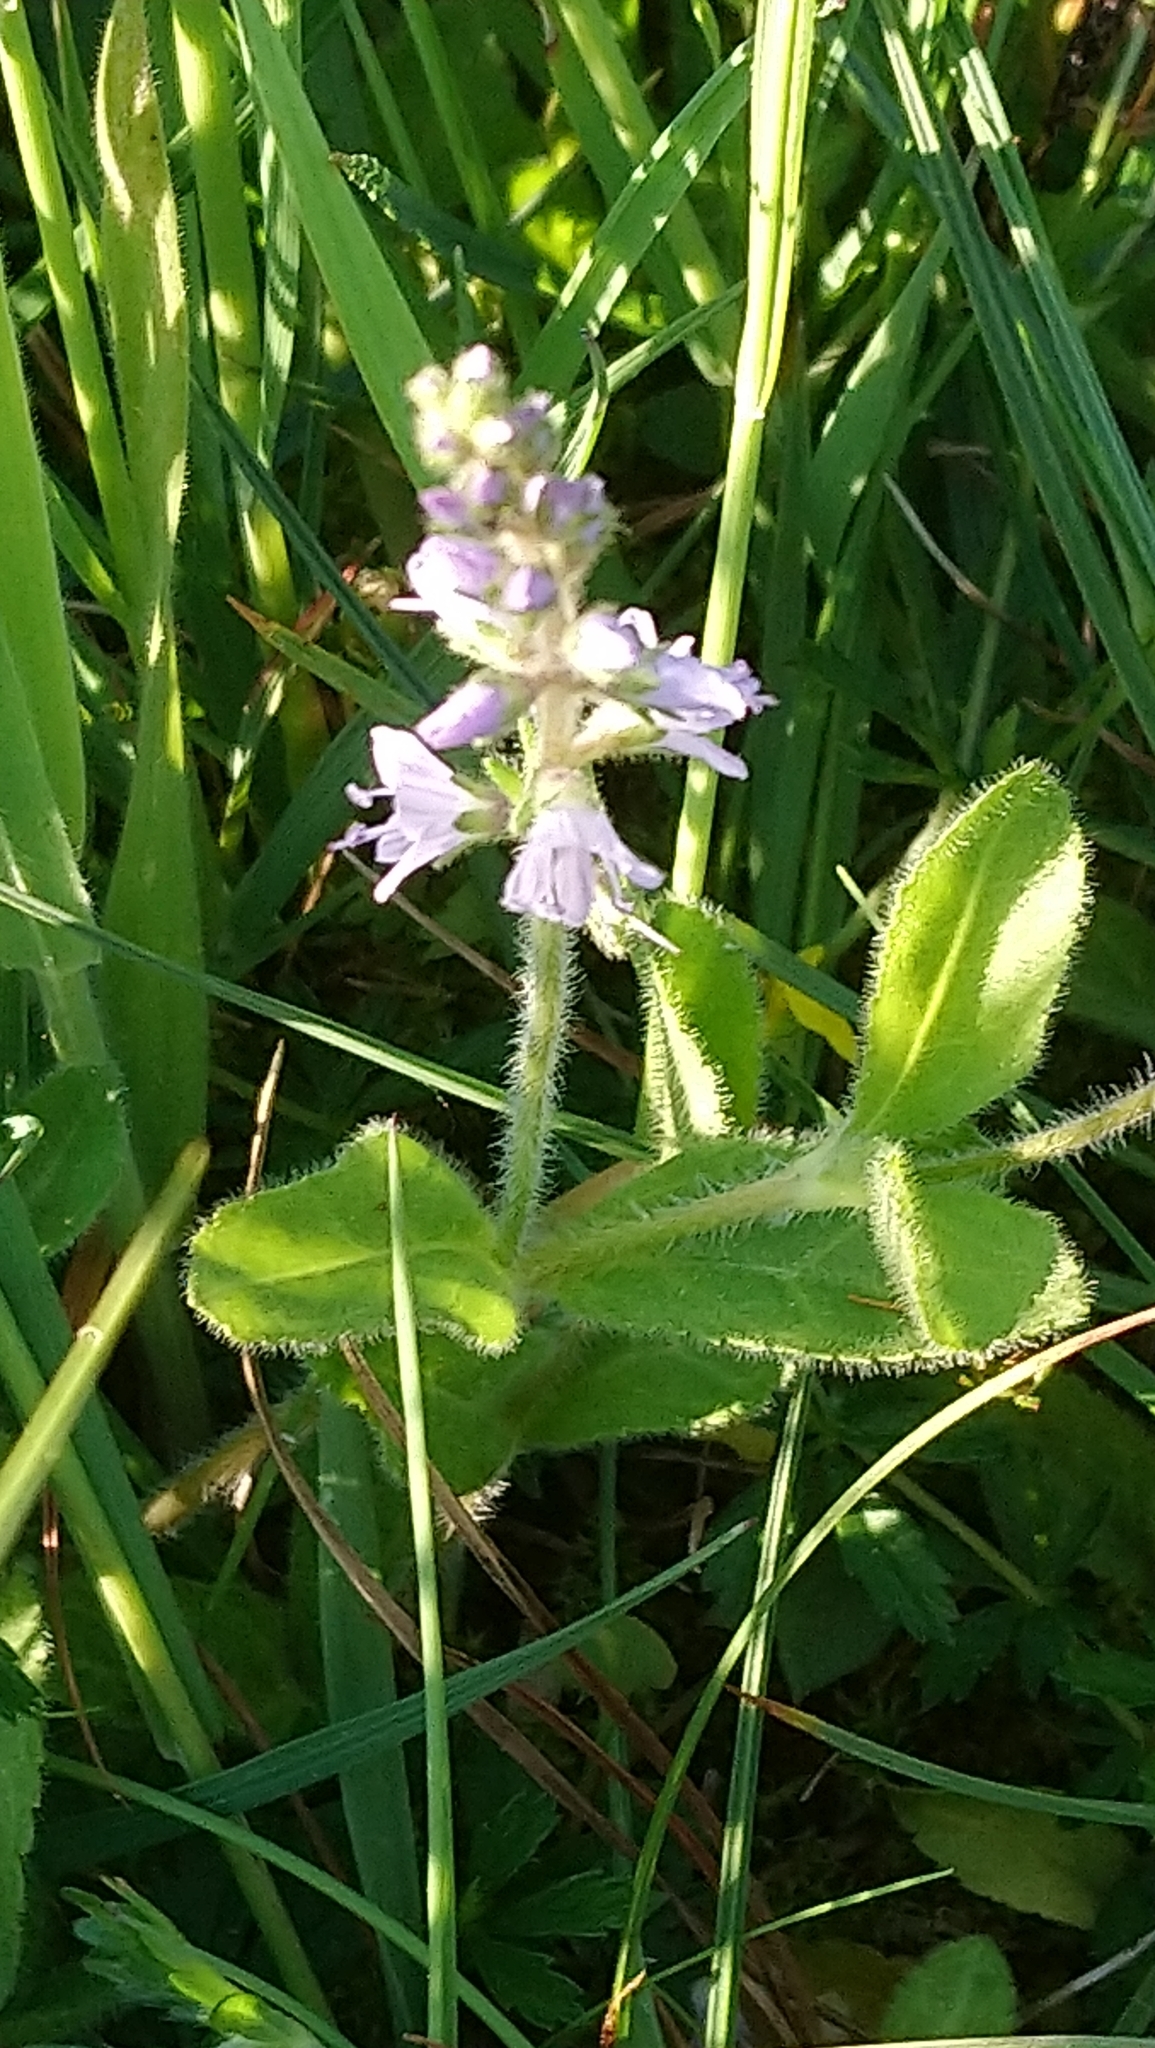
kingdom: Plantae
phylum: Tracheophyta
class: Magnoliopsida
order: Lamiales
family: Plantaginaceae
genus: Veronica
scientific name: Veronica officinalis
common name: Common speedwell
